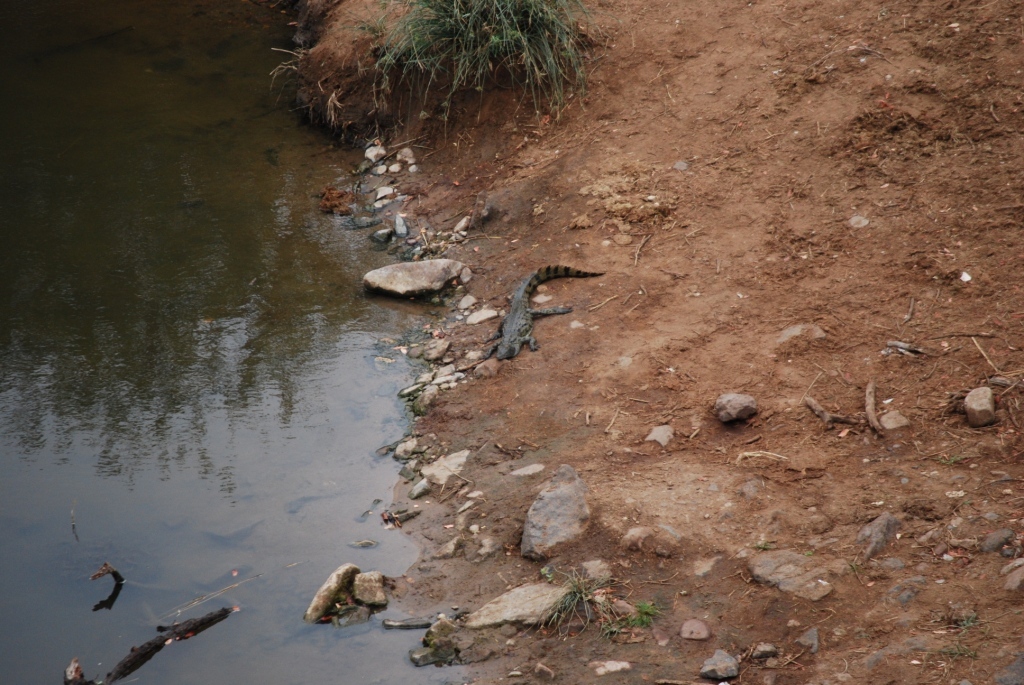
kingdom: Animalia
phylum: Chordata
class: Crocodylia
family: Crocodylidae
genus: Crocodylus
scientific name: Crocodylus niloticus
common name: Nile crocodile
